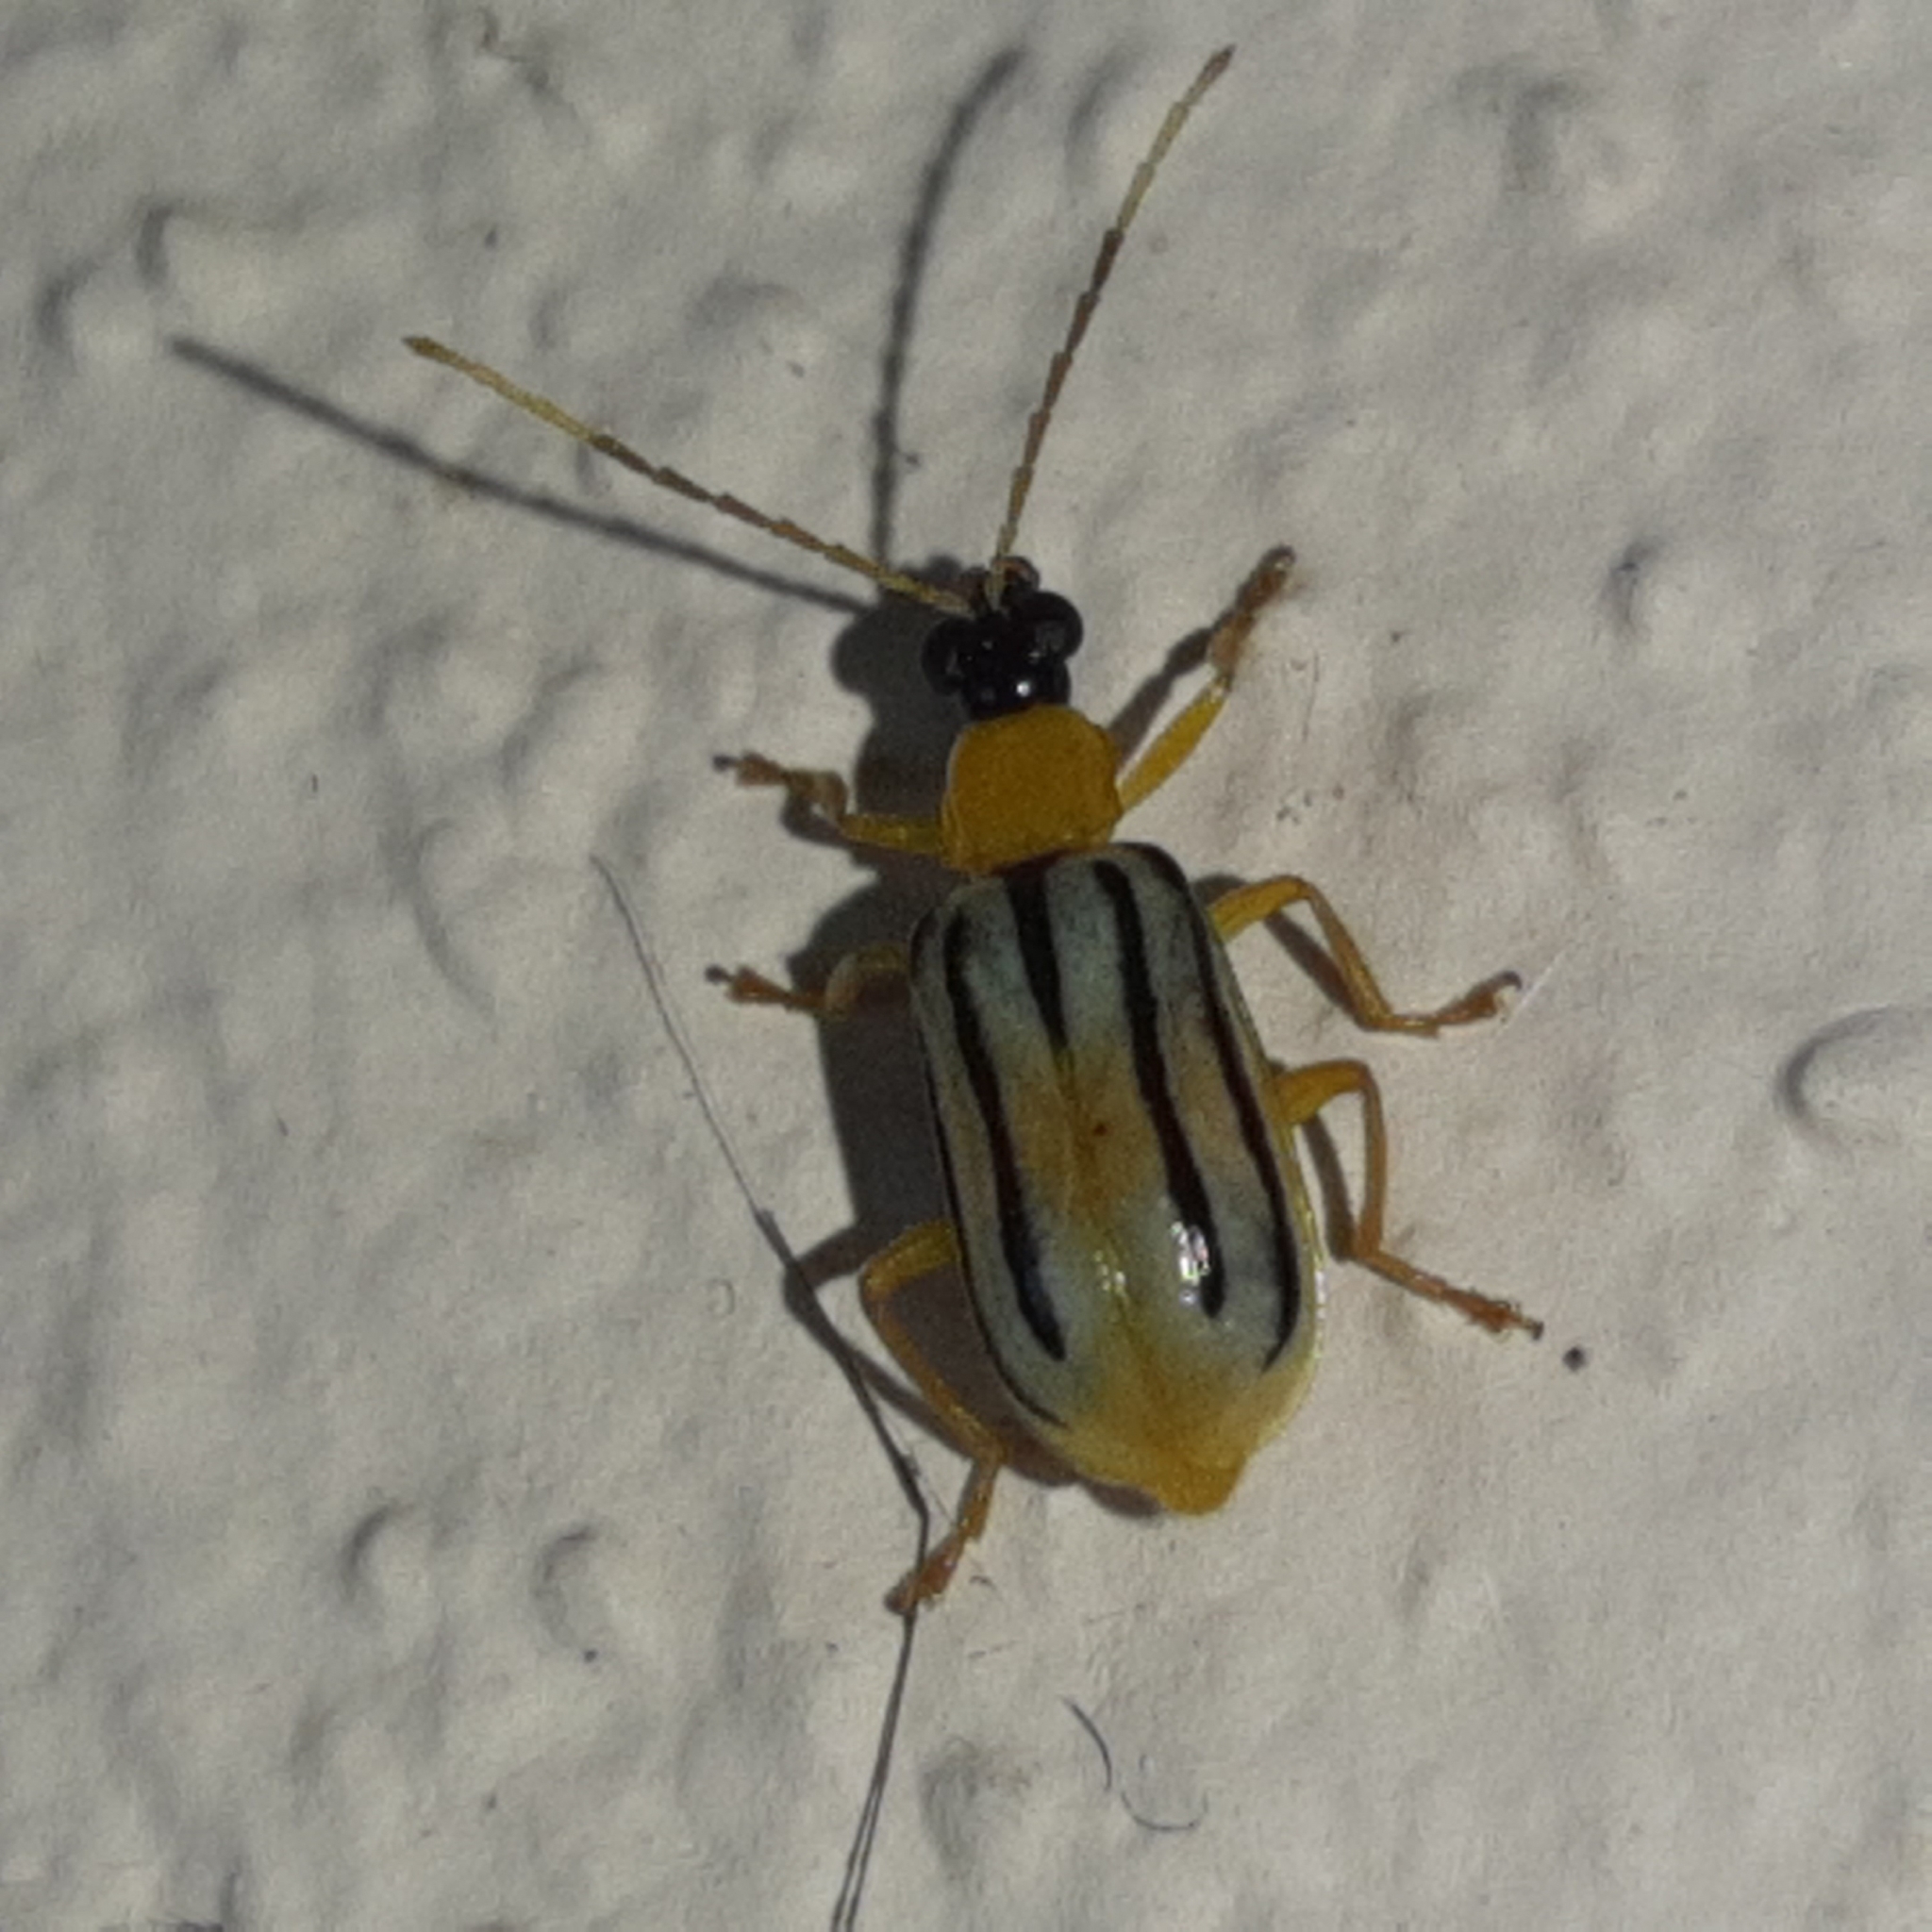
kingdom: Animalia
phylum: Arthropoda
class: Insecta
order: Coleoptera
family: Chrysomelidae
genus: Diabrotica
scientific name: Diabrotica
